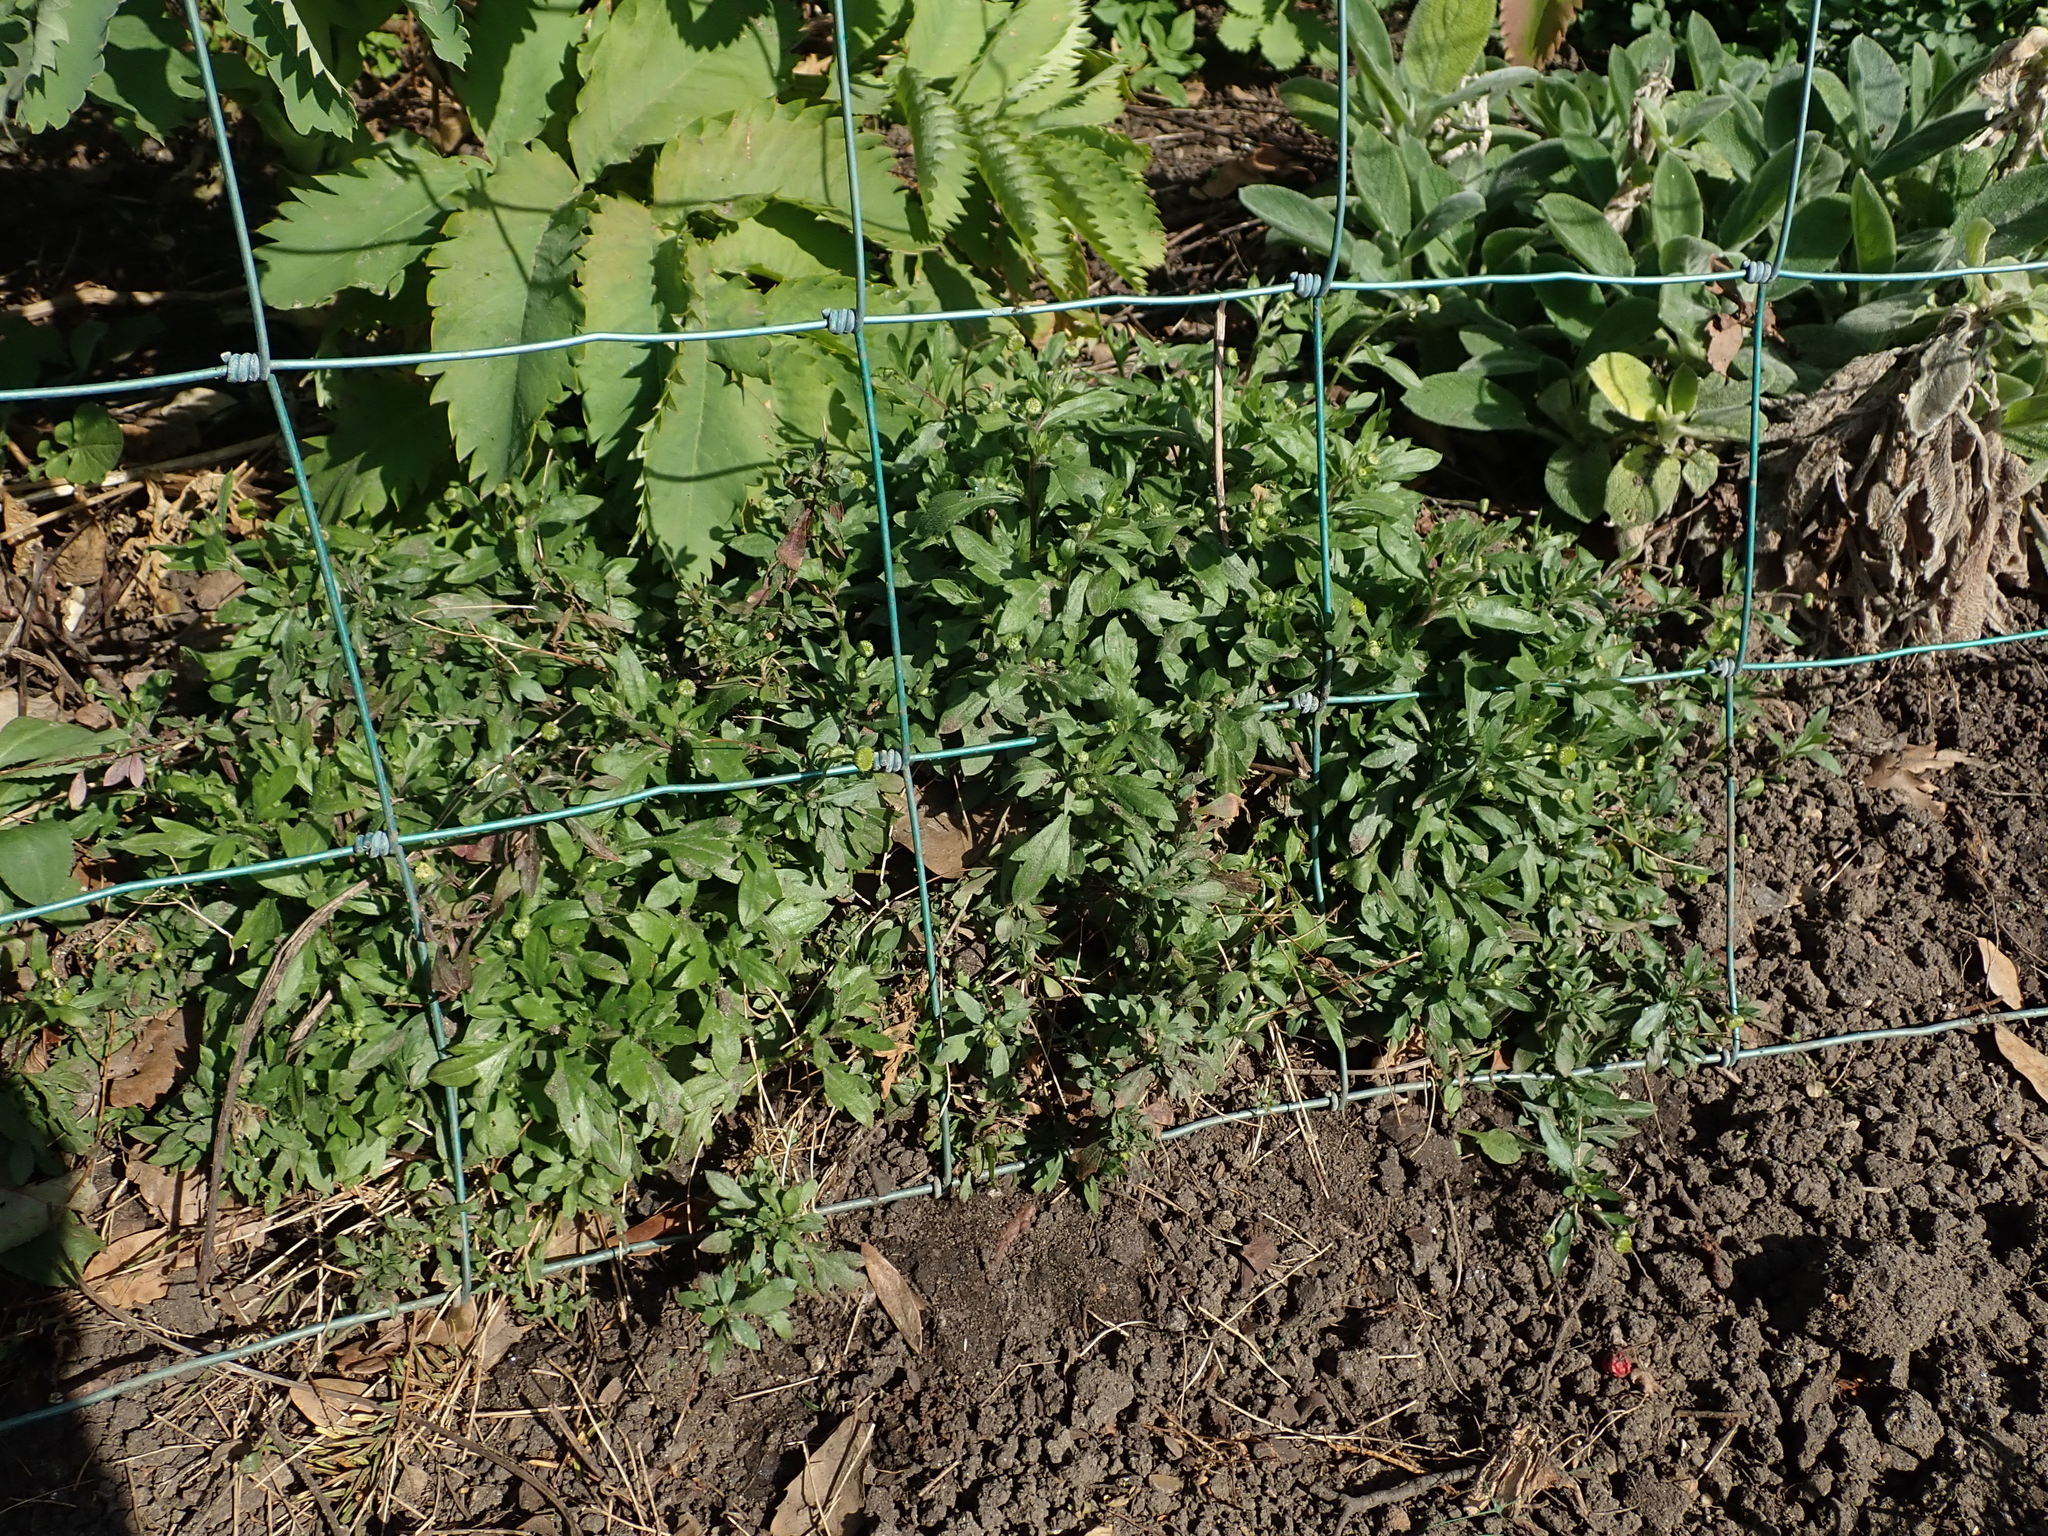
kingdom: Plantae
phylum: Tracheophyta
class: Magnoliopsida
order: Asterales
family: Asteraceae
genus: Erigeron
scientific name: Erigeron karvinskianus
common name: Mexican fleabane
